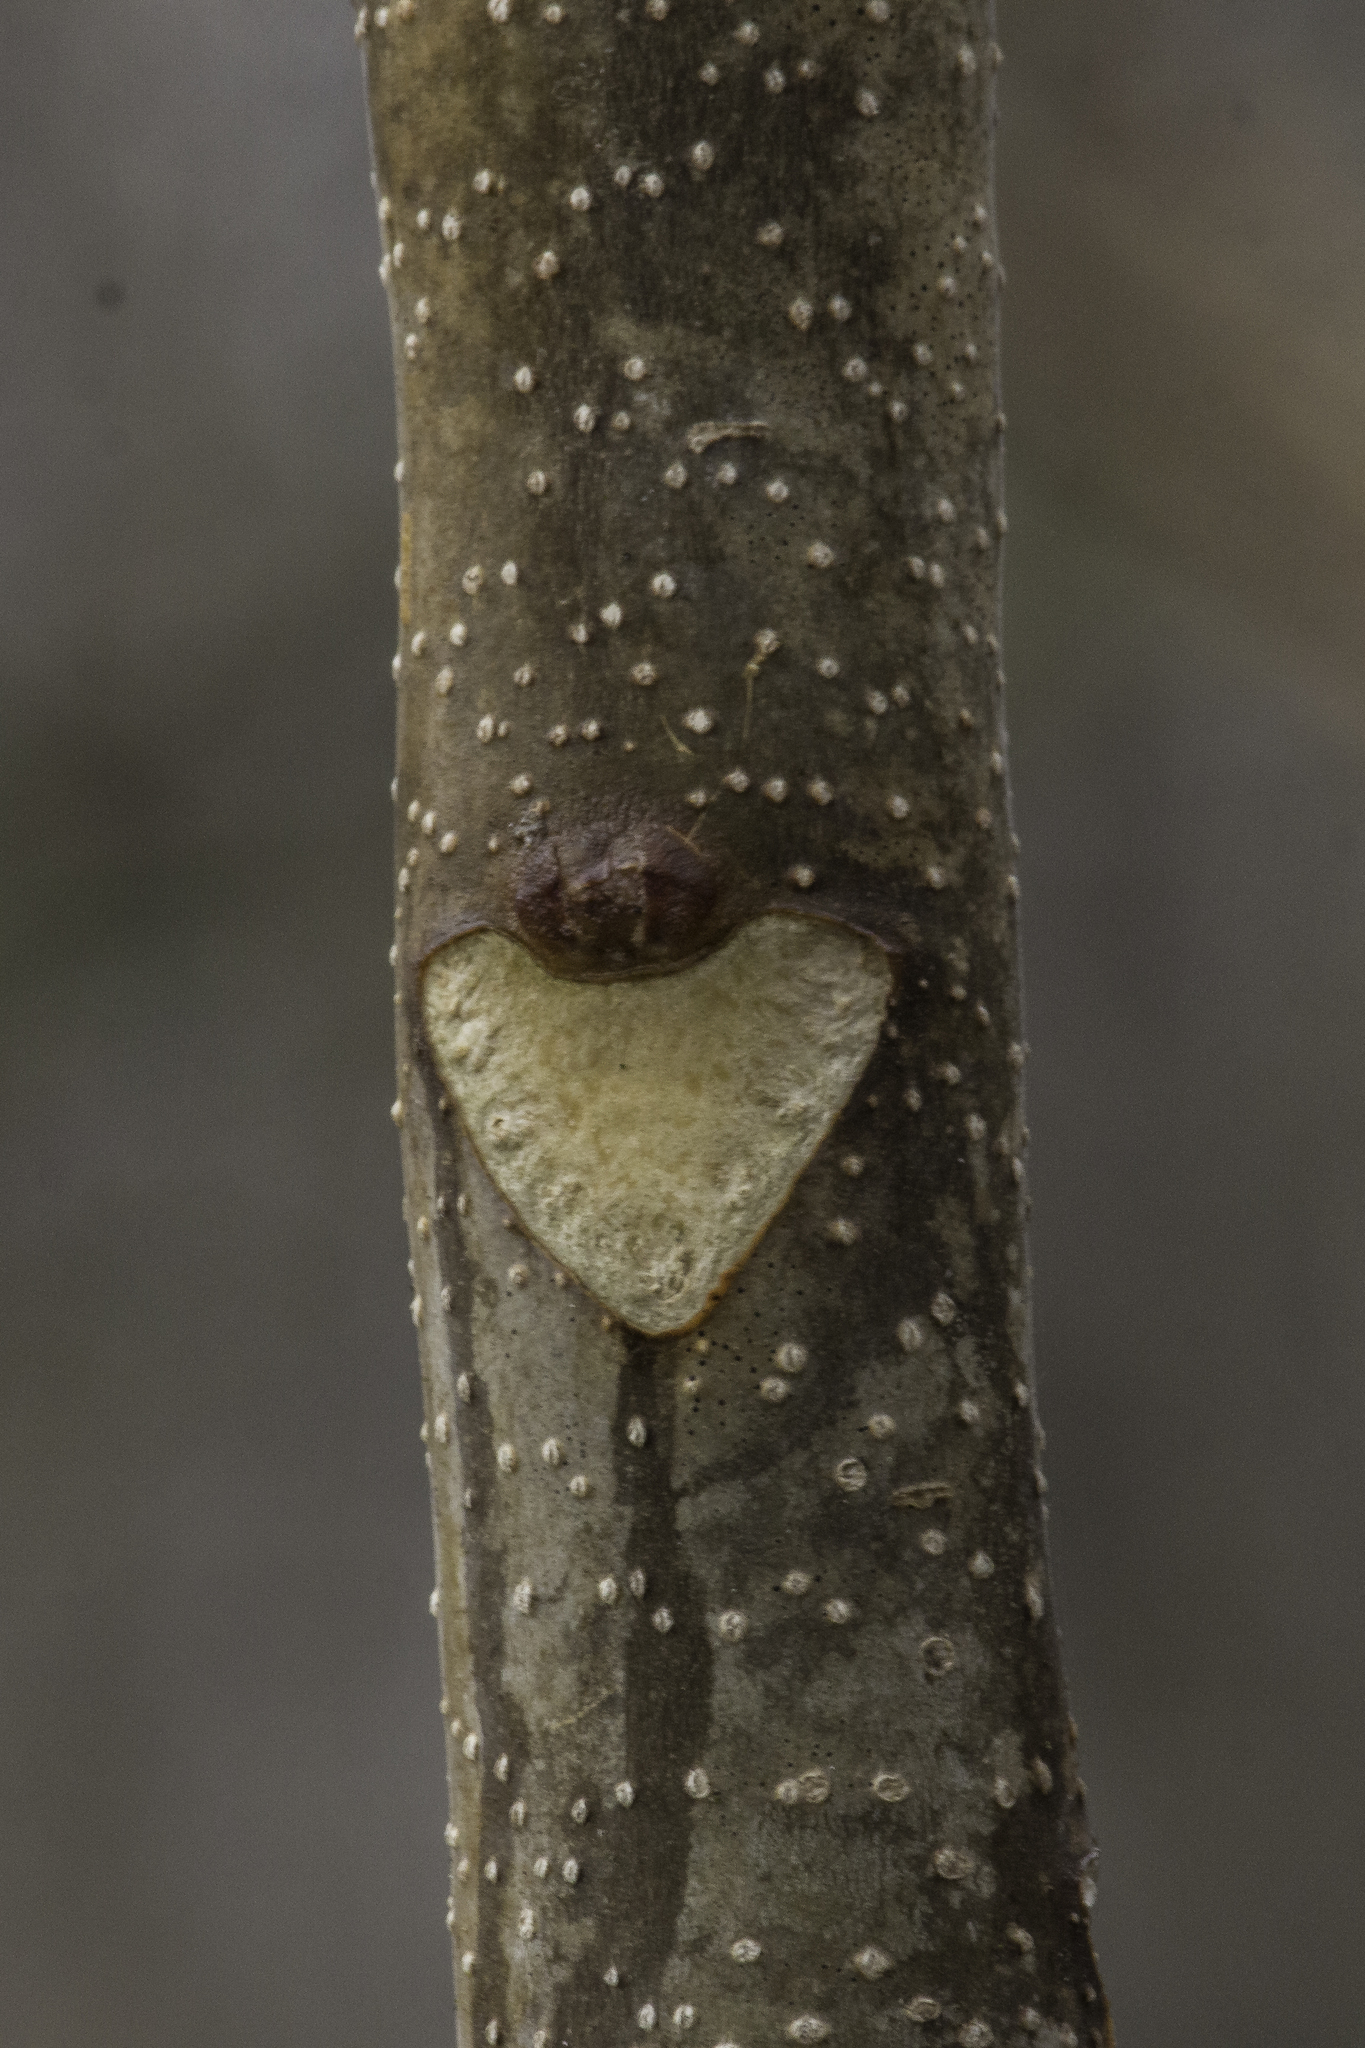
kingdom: Plantae
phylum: Tracheophyta
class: Magnoliopsida
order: Sapindales
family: Simaroubaceae
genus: Ailanthus
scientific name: Ailanthus altissima
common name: Tree-of-heaven
